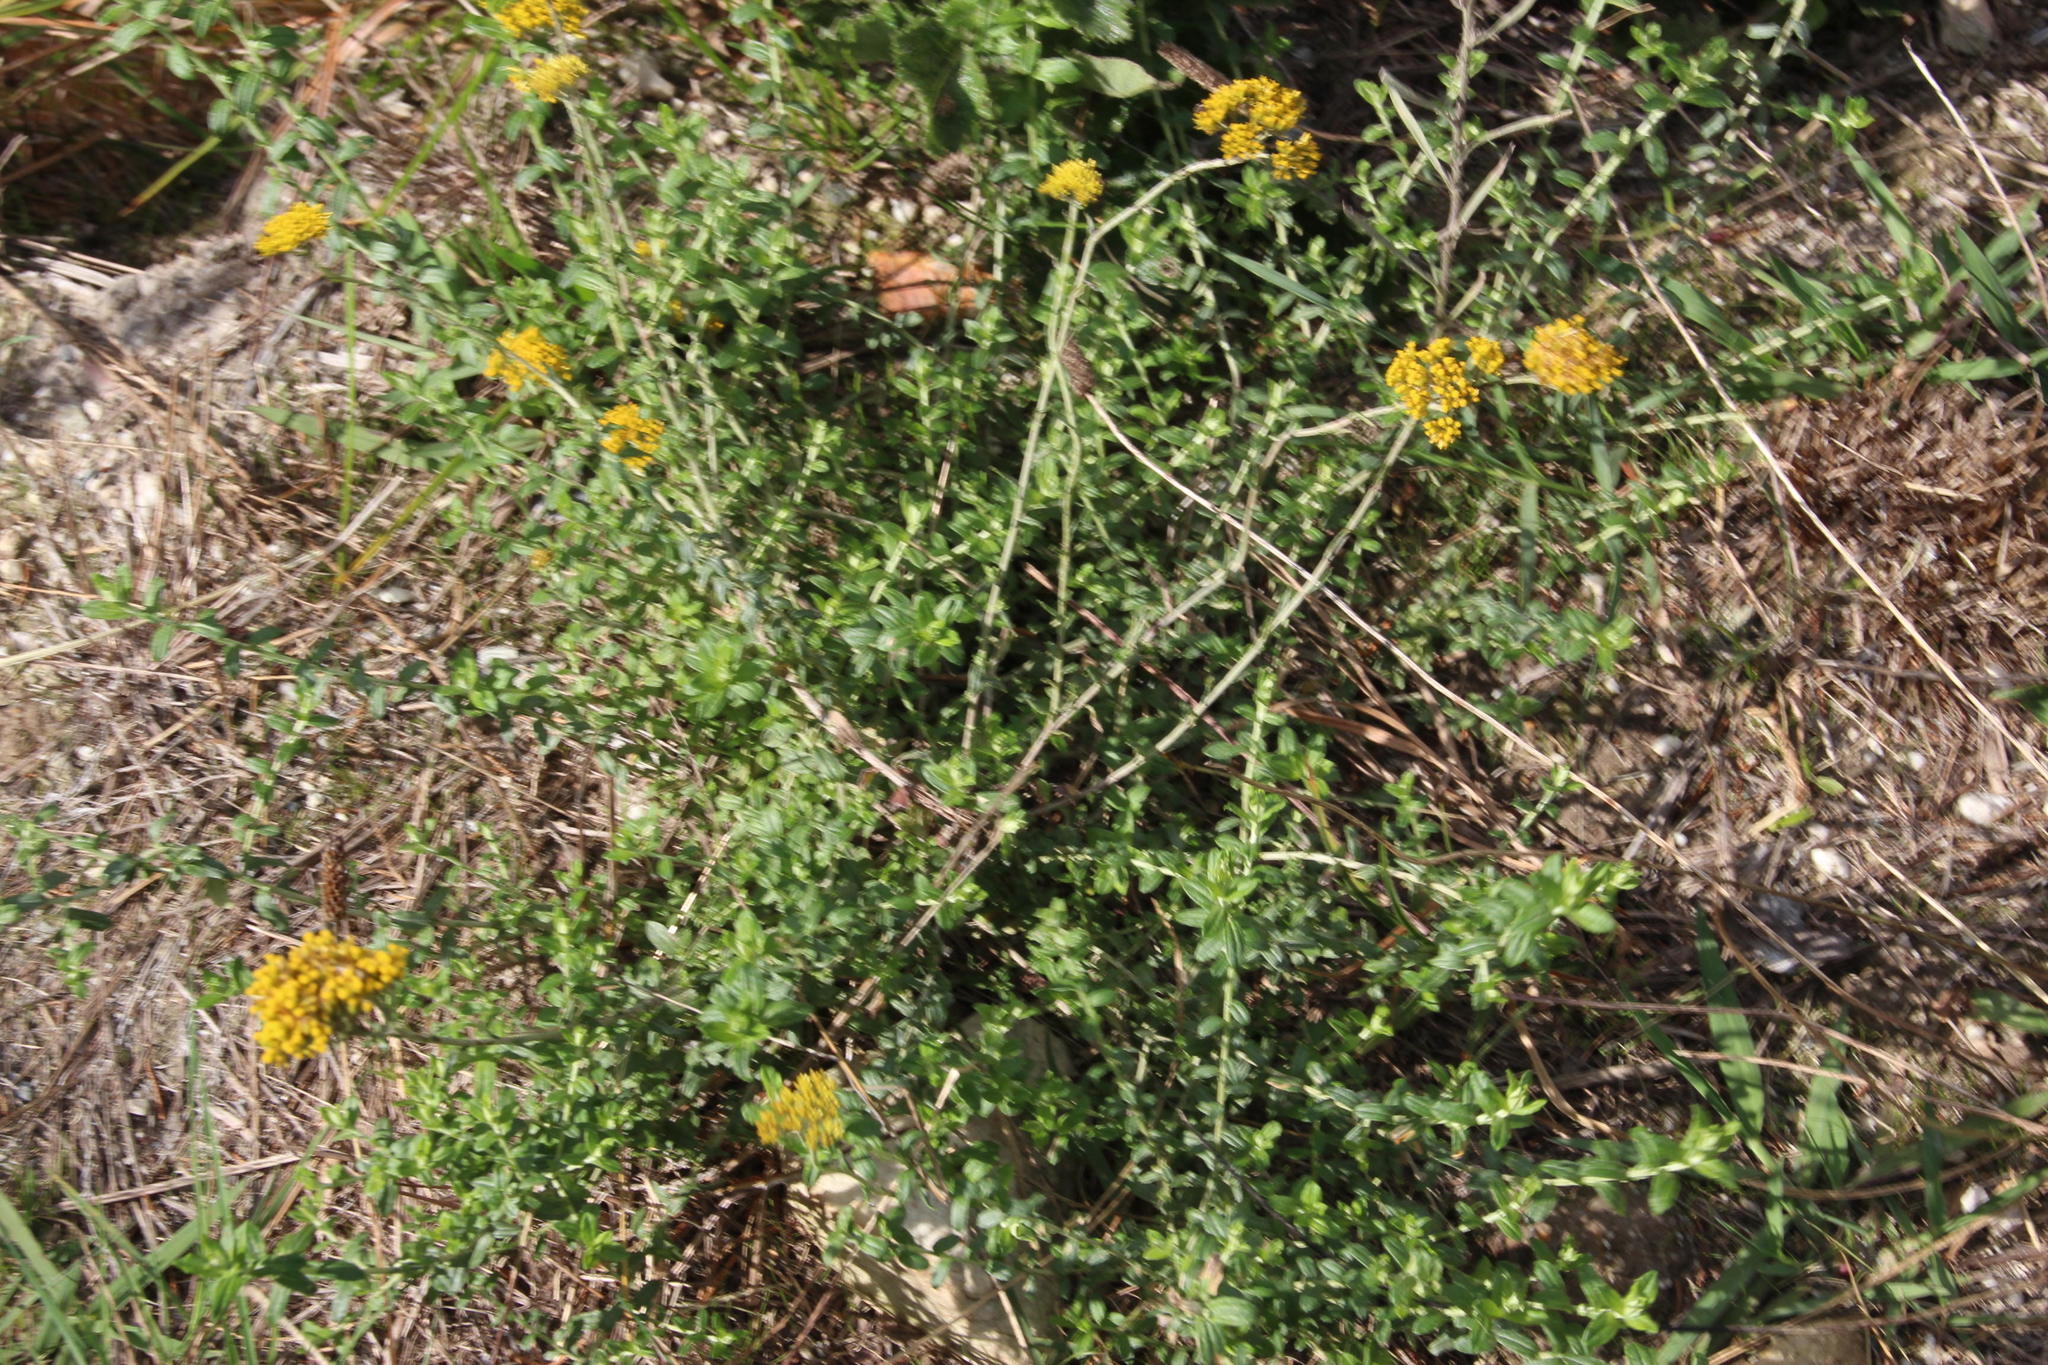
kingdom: Plantae
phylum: Tracheophyta
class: Magnoliopsida
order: Asterales
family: Asteraceae
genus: Helichrysum
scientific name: Helichrysum cymosum
